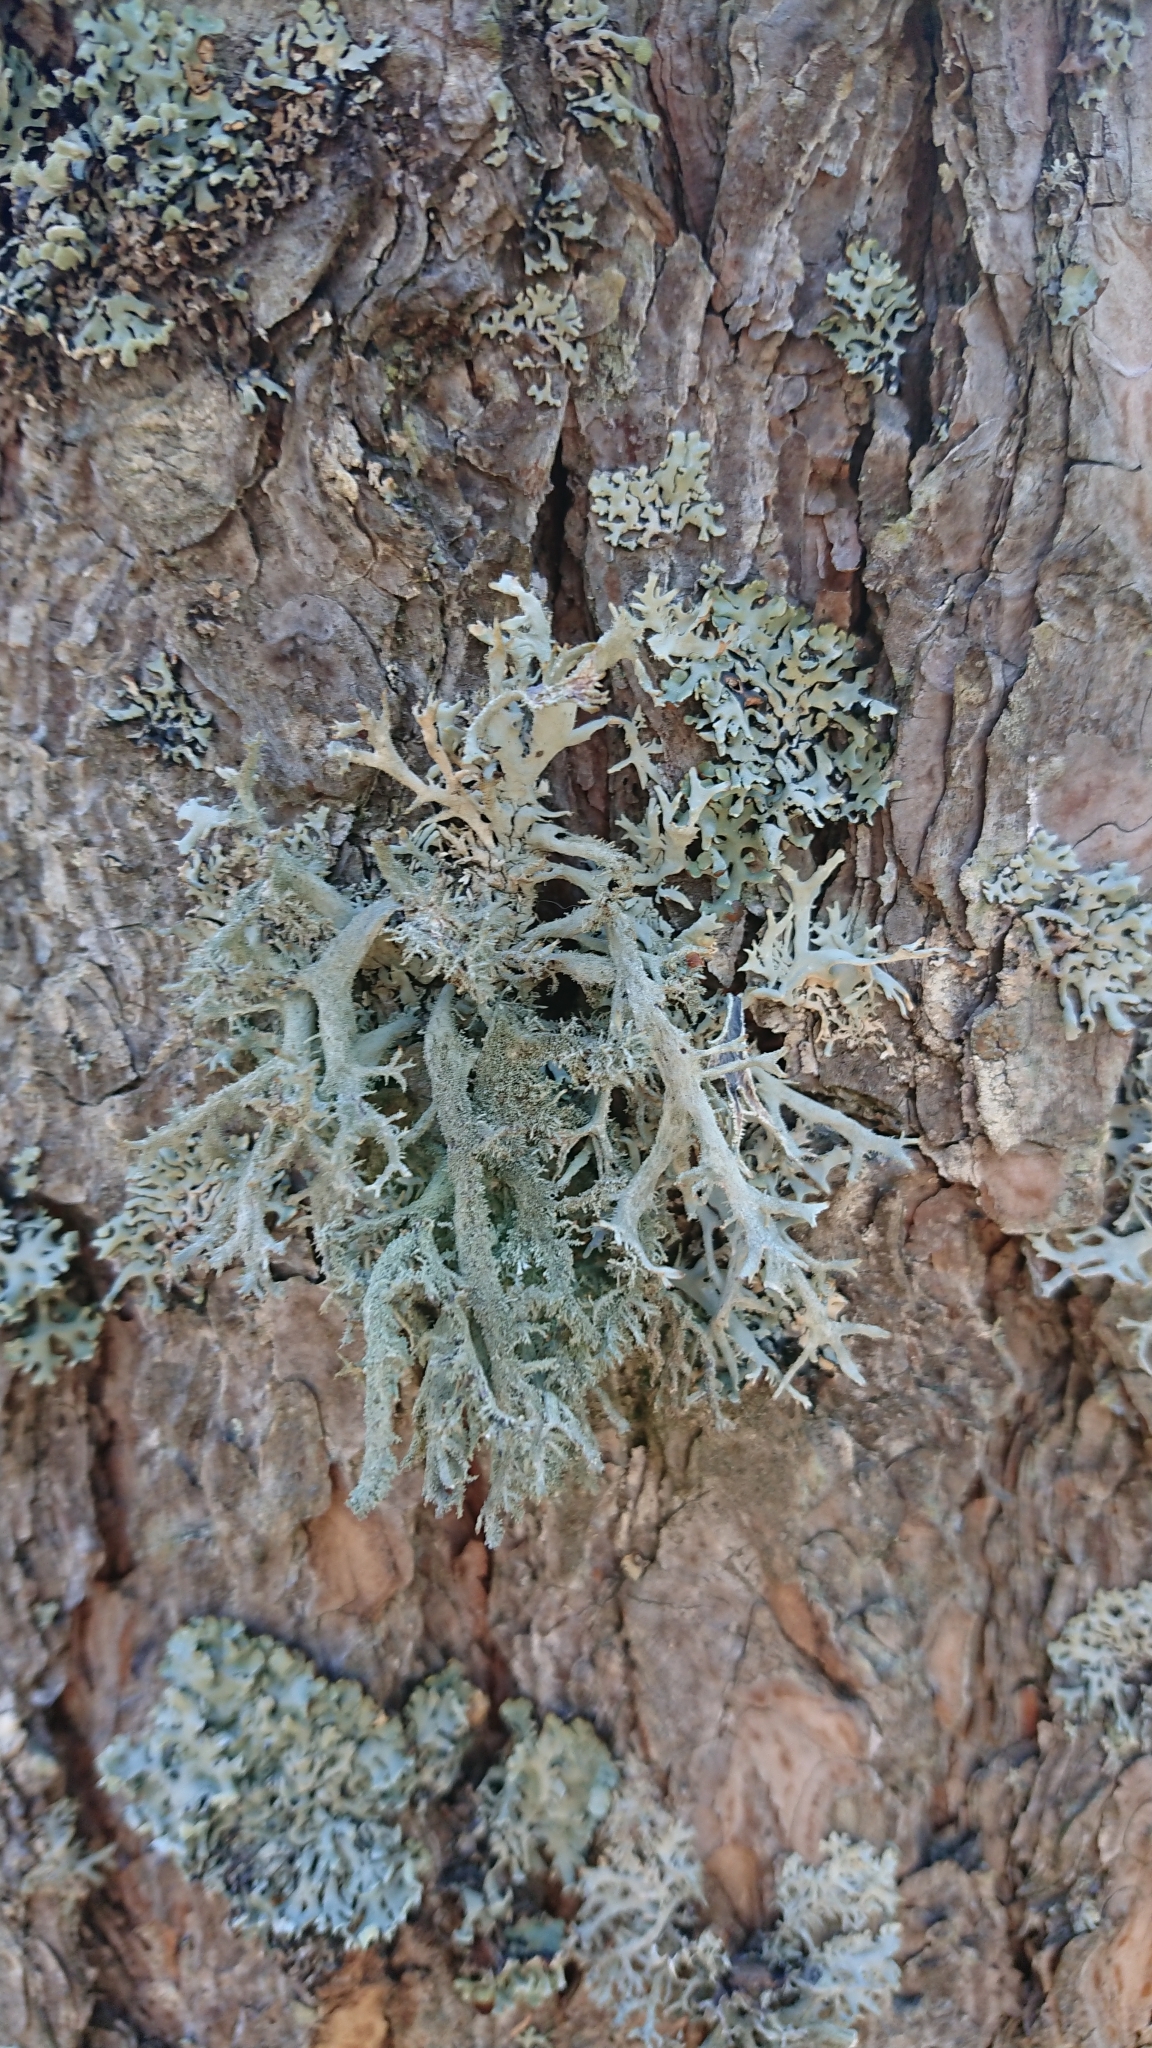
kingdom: Fungi
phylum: Ascomycota
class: Lecanoromycetes
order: Lecanorales
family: Parmeliaceae
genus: Pseudevernia
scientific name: Pseudevernia furfuracea
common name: Tree moss
